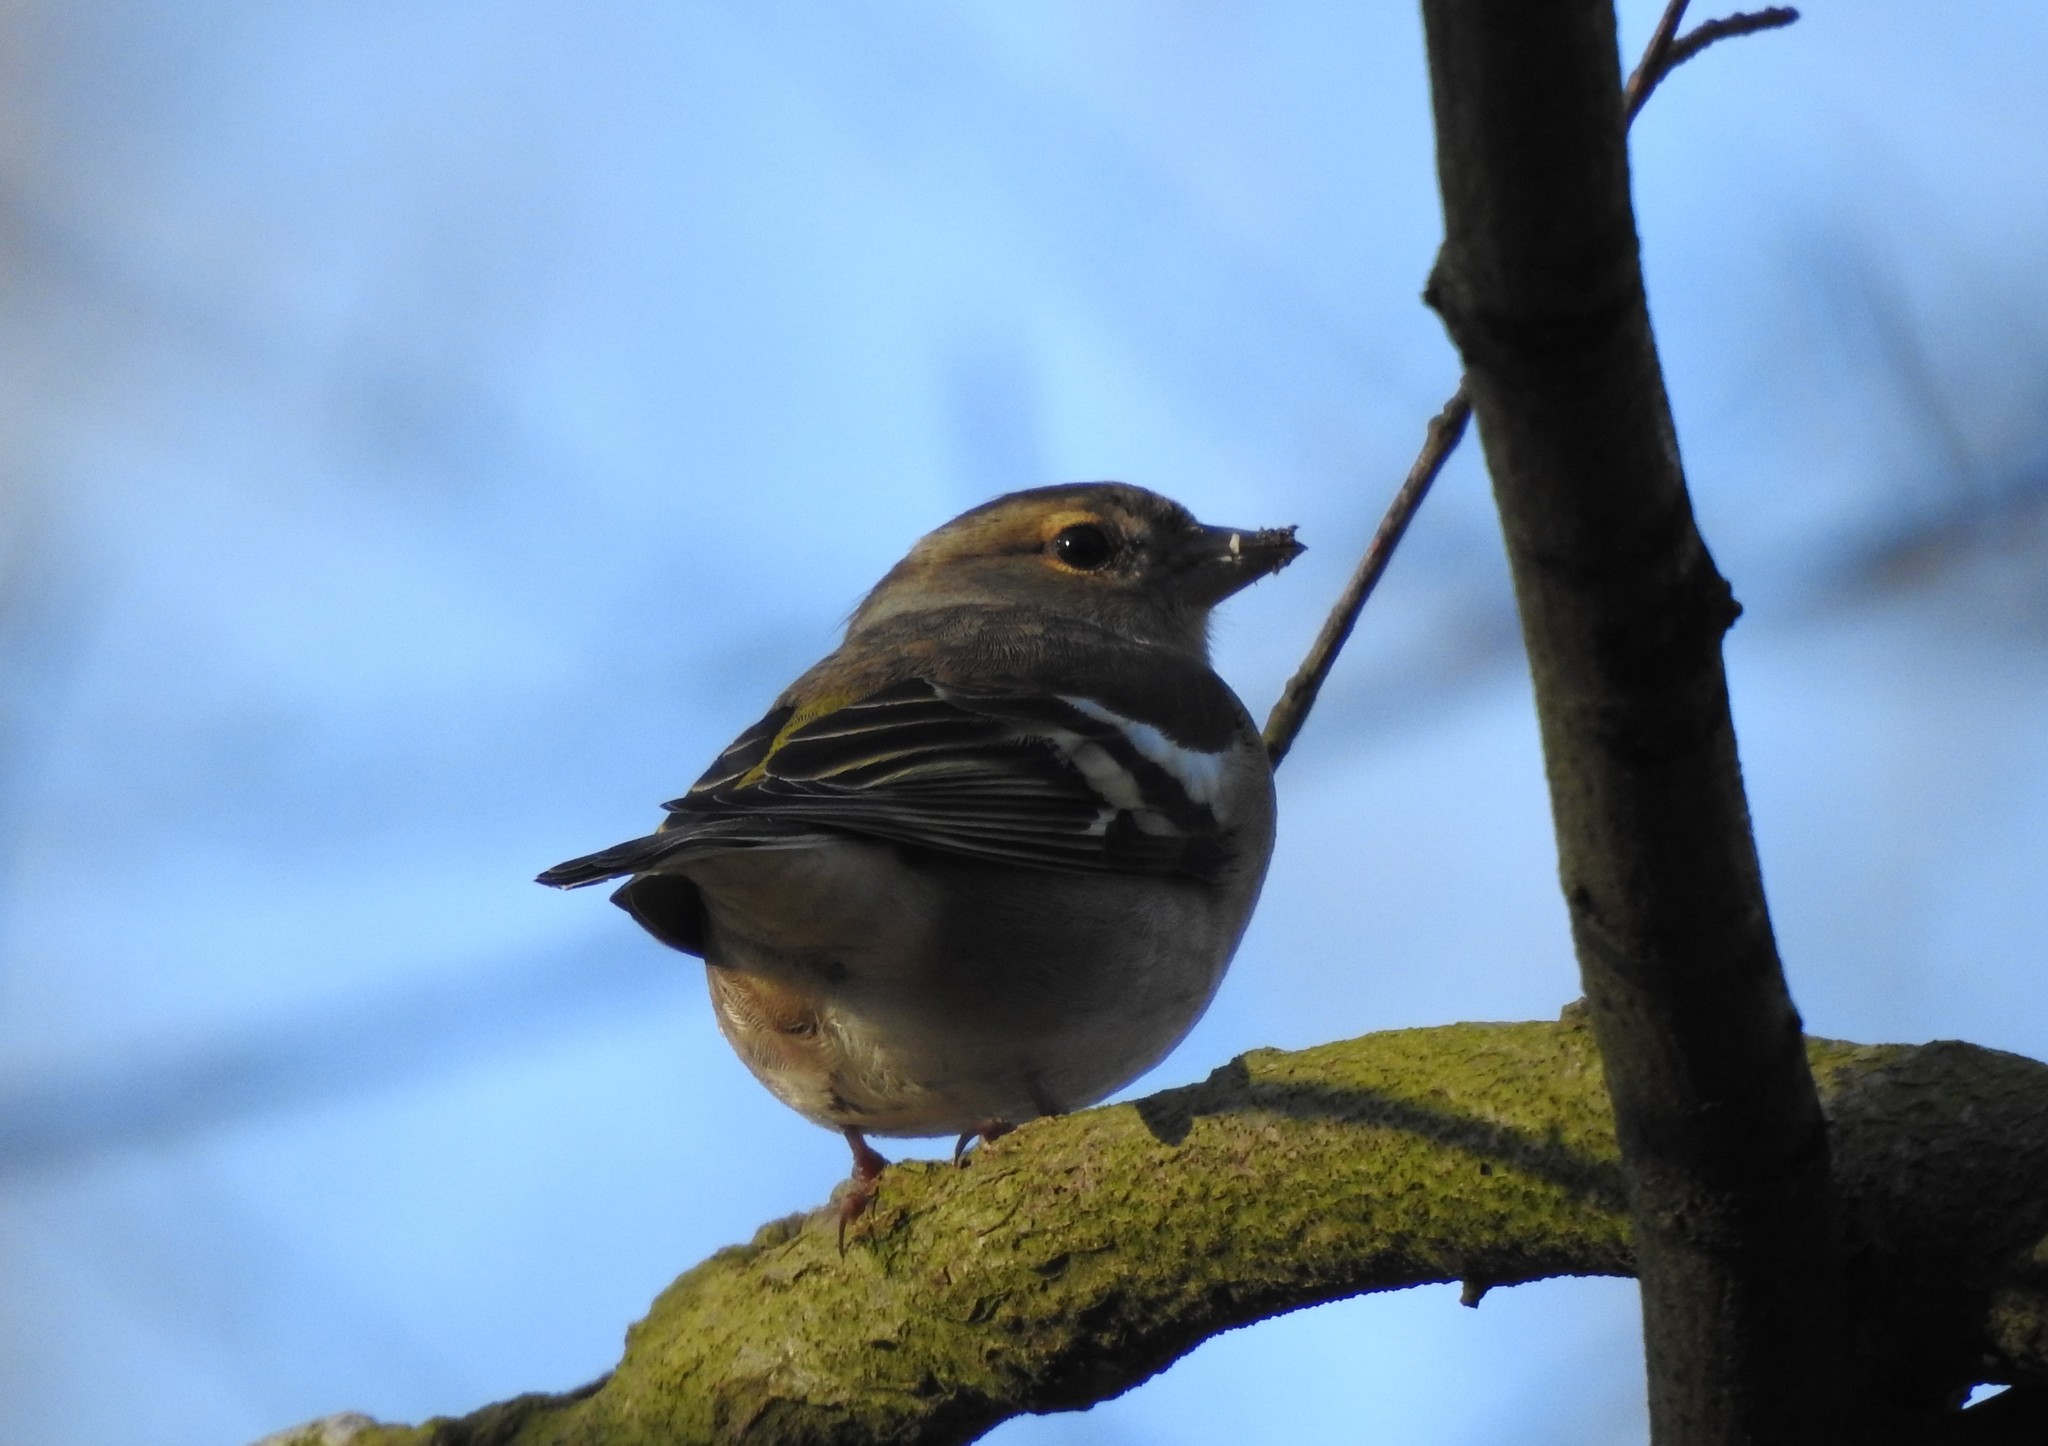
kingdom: Animalia
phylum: Chordata
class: Aves
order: Passeriformes
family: Fringillidae
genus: Fringilla
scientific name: Fringilla coelebs
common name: Common chaffinch
